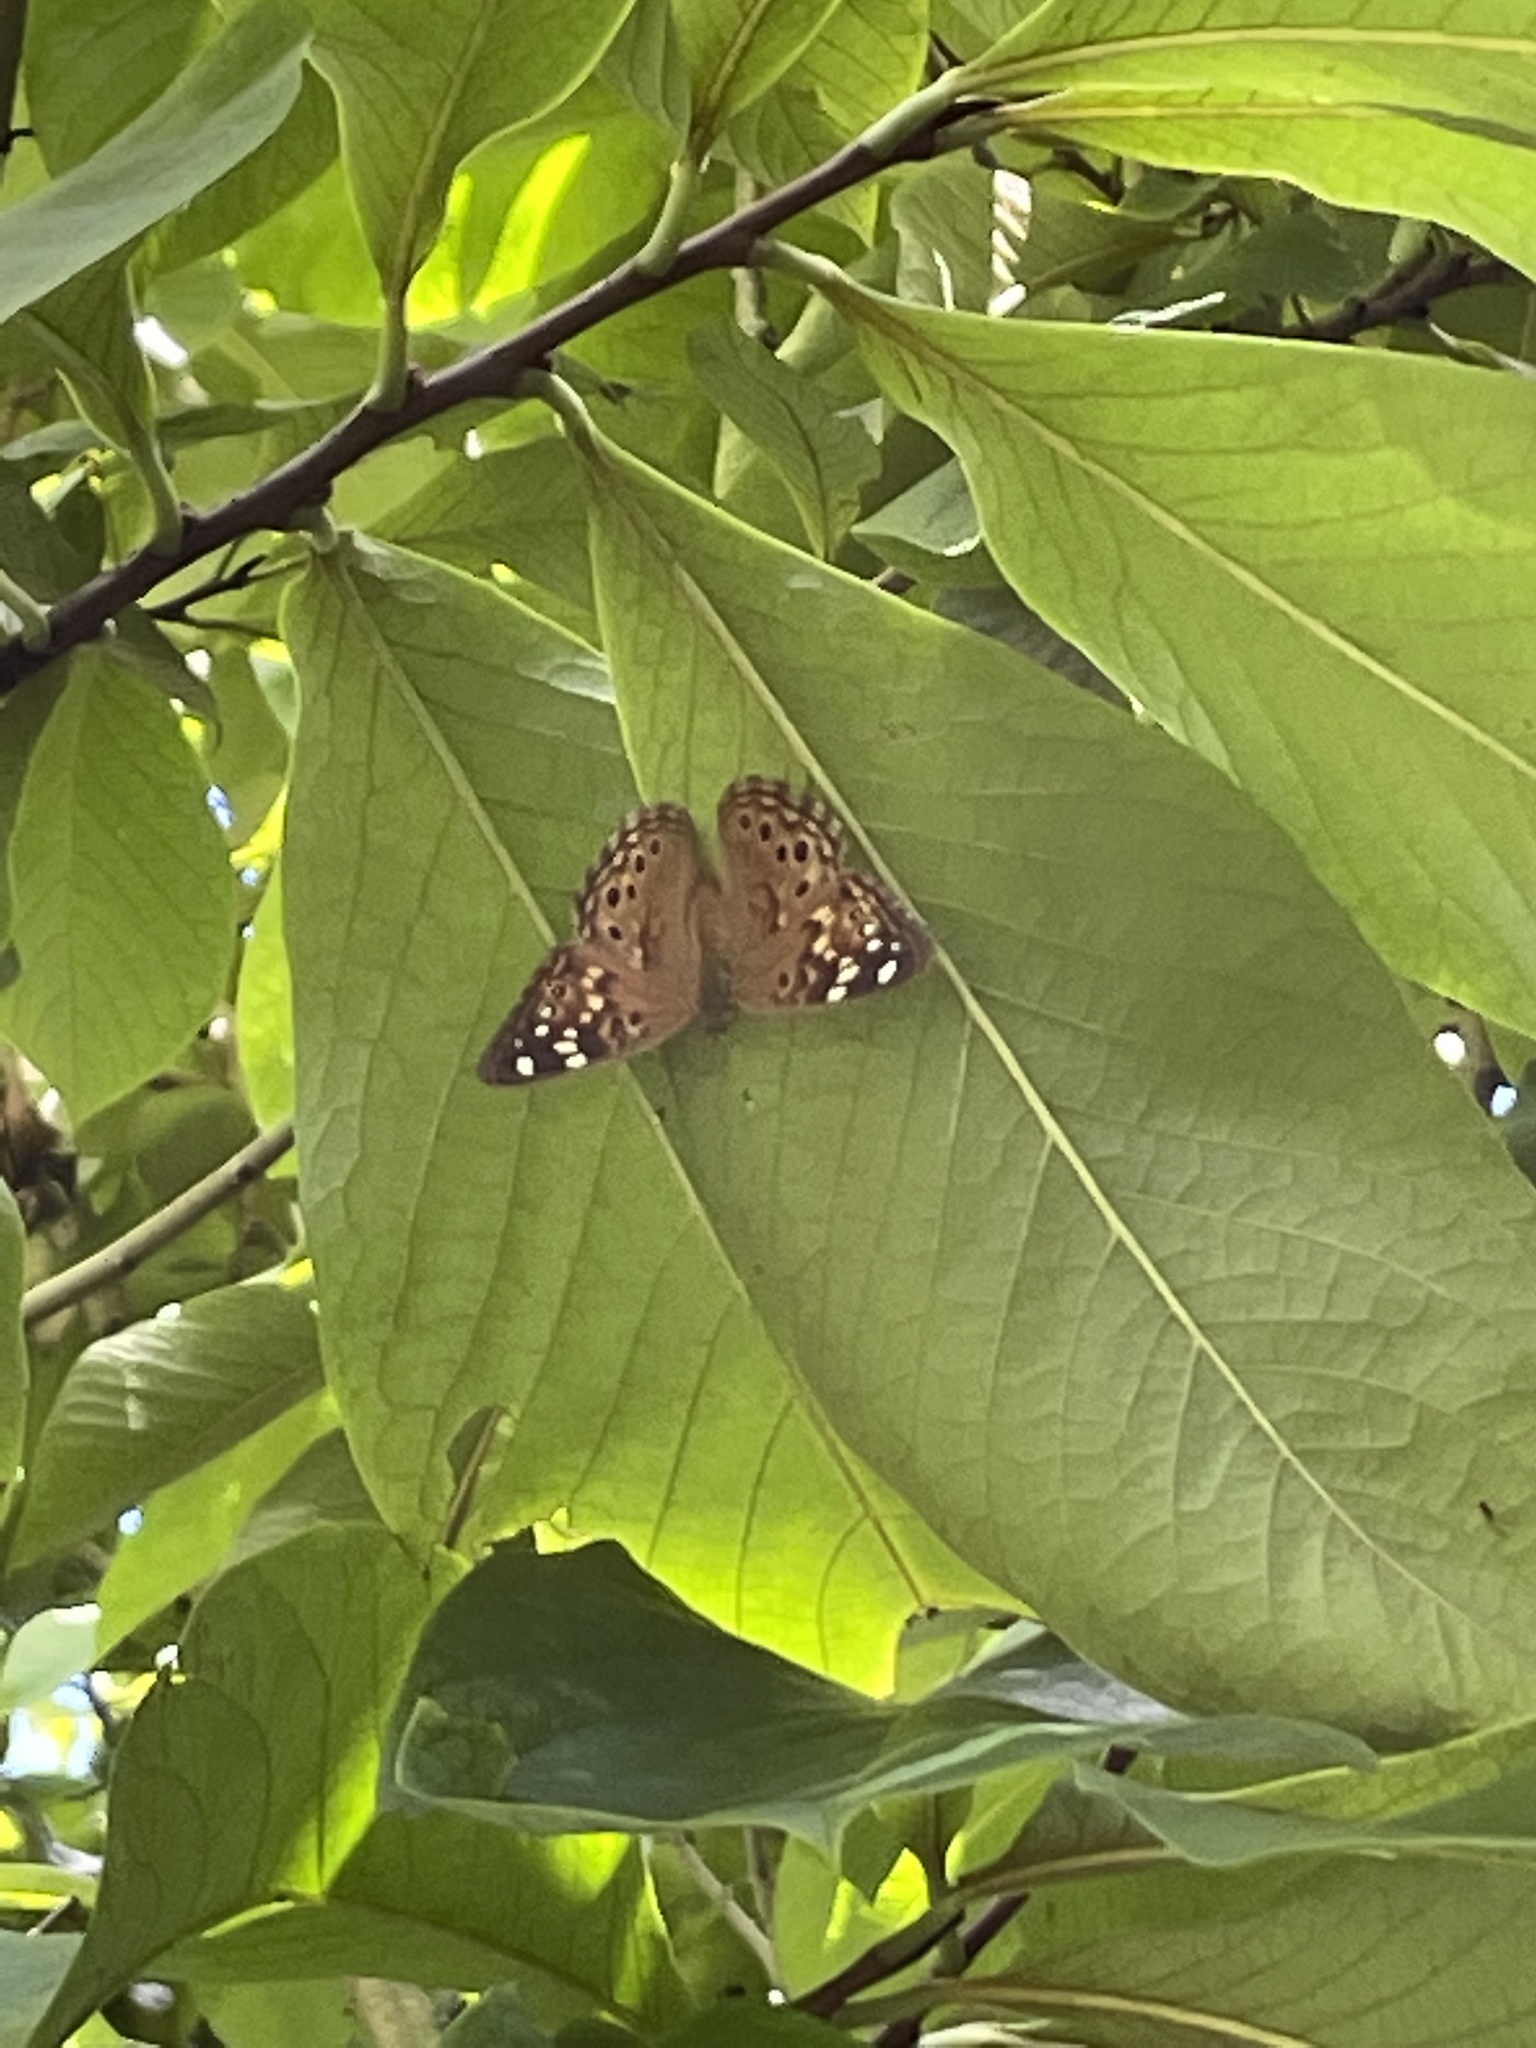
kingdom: Animalia
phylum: Arthropoda
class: Insecta
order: Lepidoptera
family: Nymphalidae
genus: Asterocampa
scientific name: Asterocampa celtis
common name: Hackberry emperor
